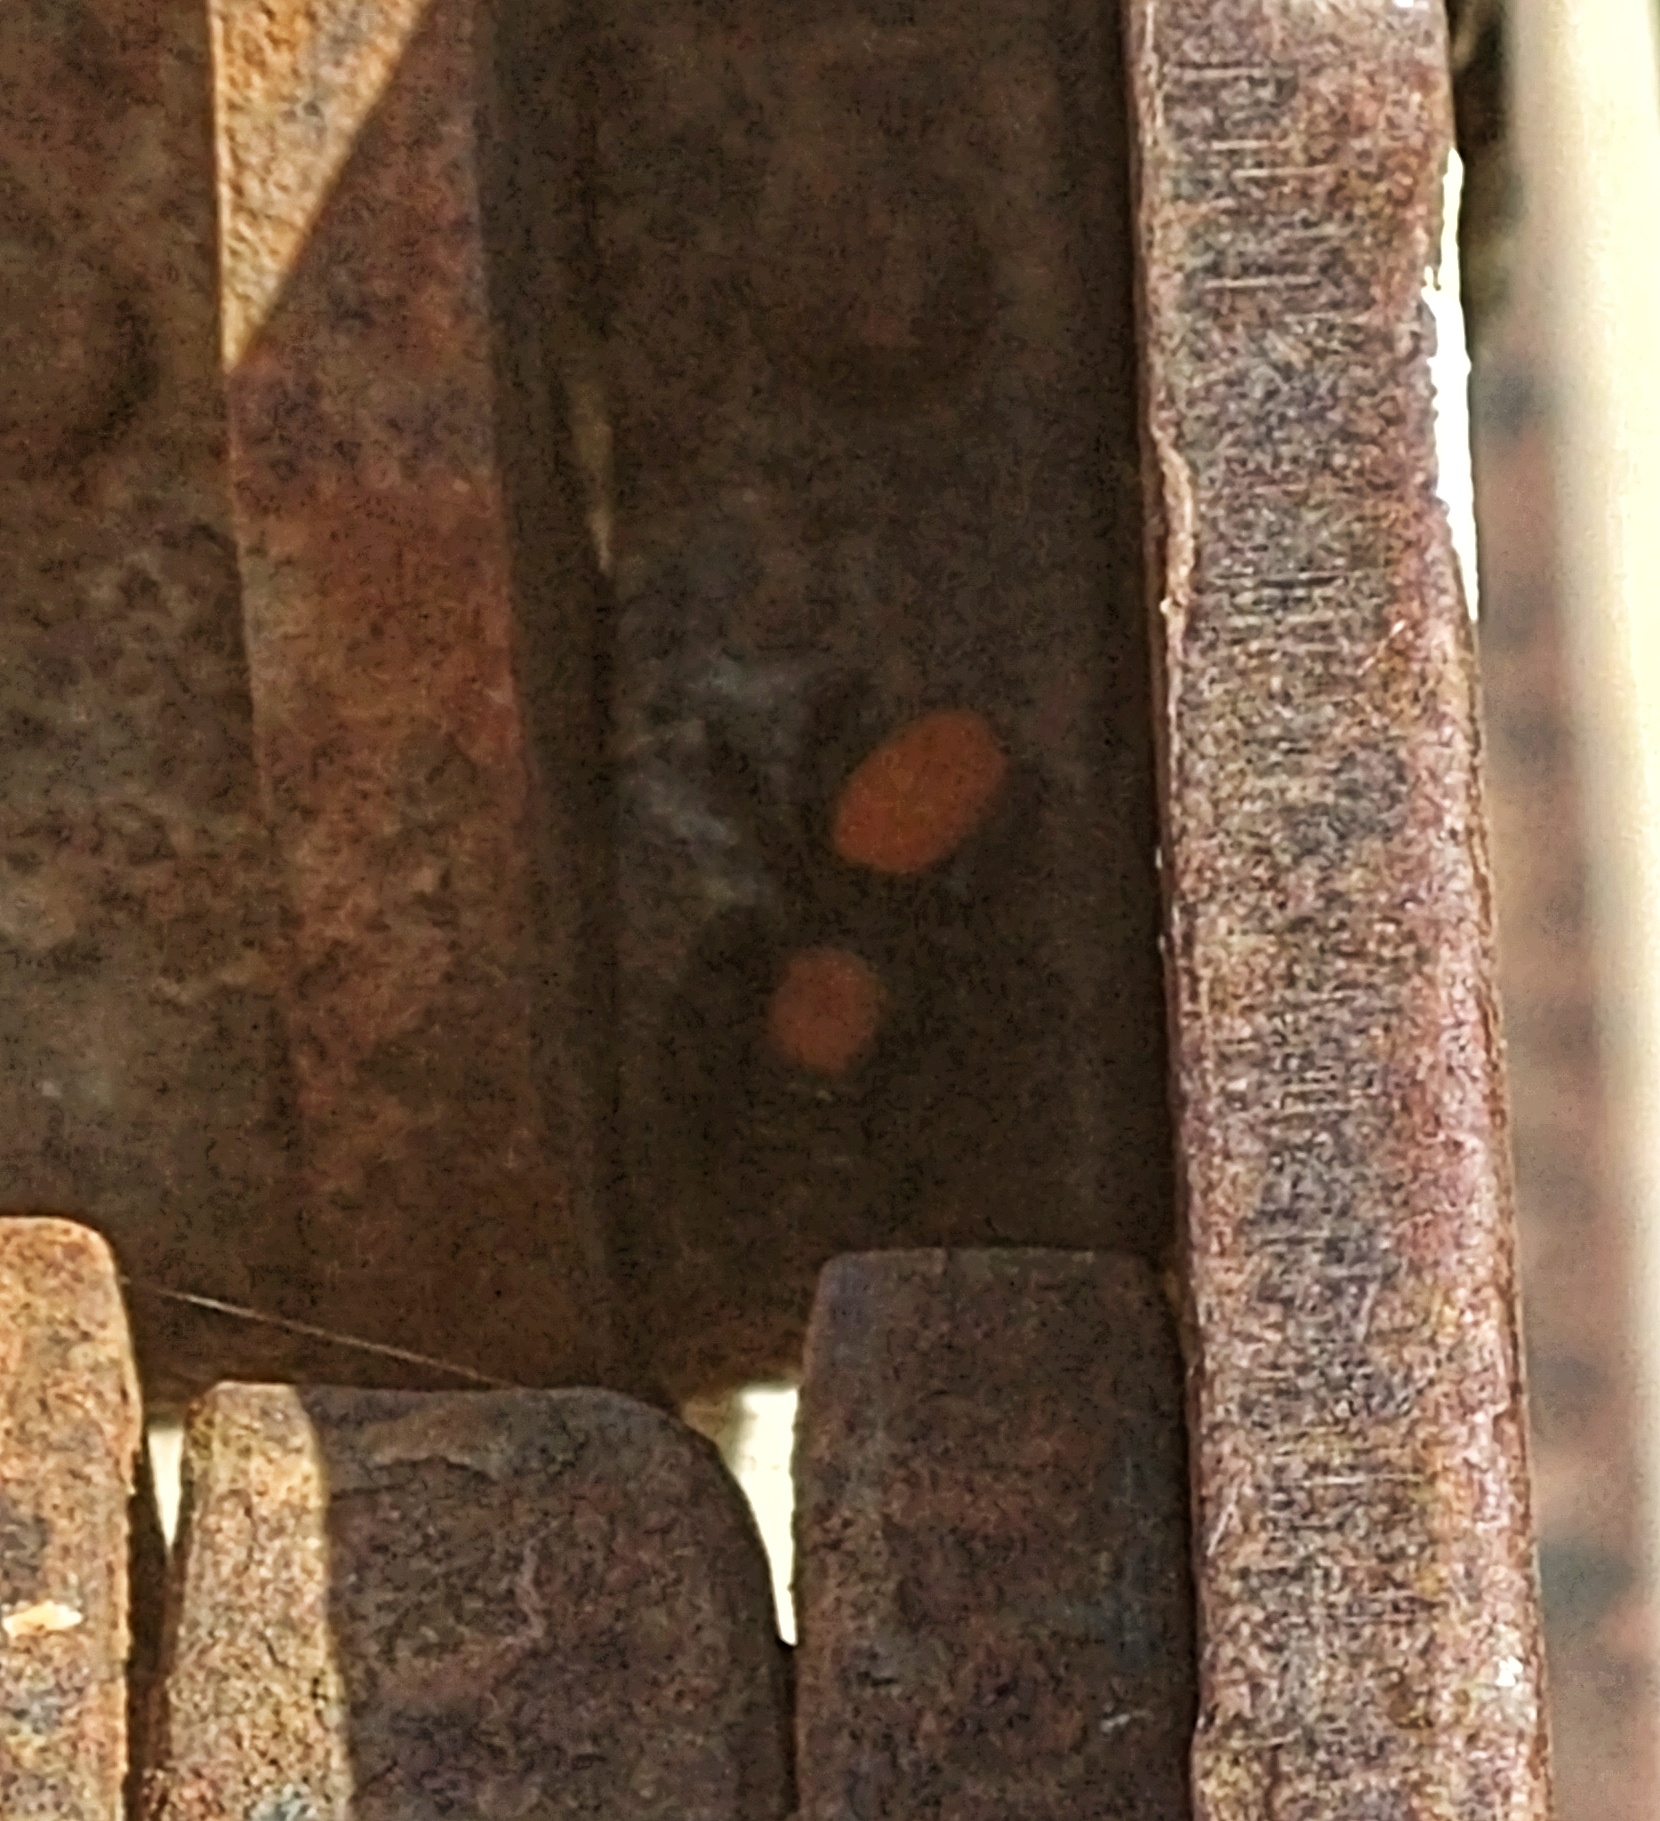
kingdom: Animalia
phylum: Arthropoda
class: Arachnida
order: Araneae
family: Salticidae
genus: Phidippus
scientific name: Phidippus nikites
